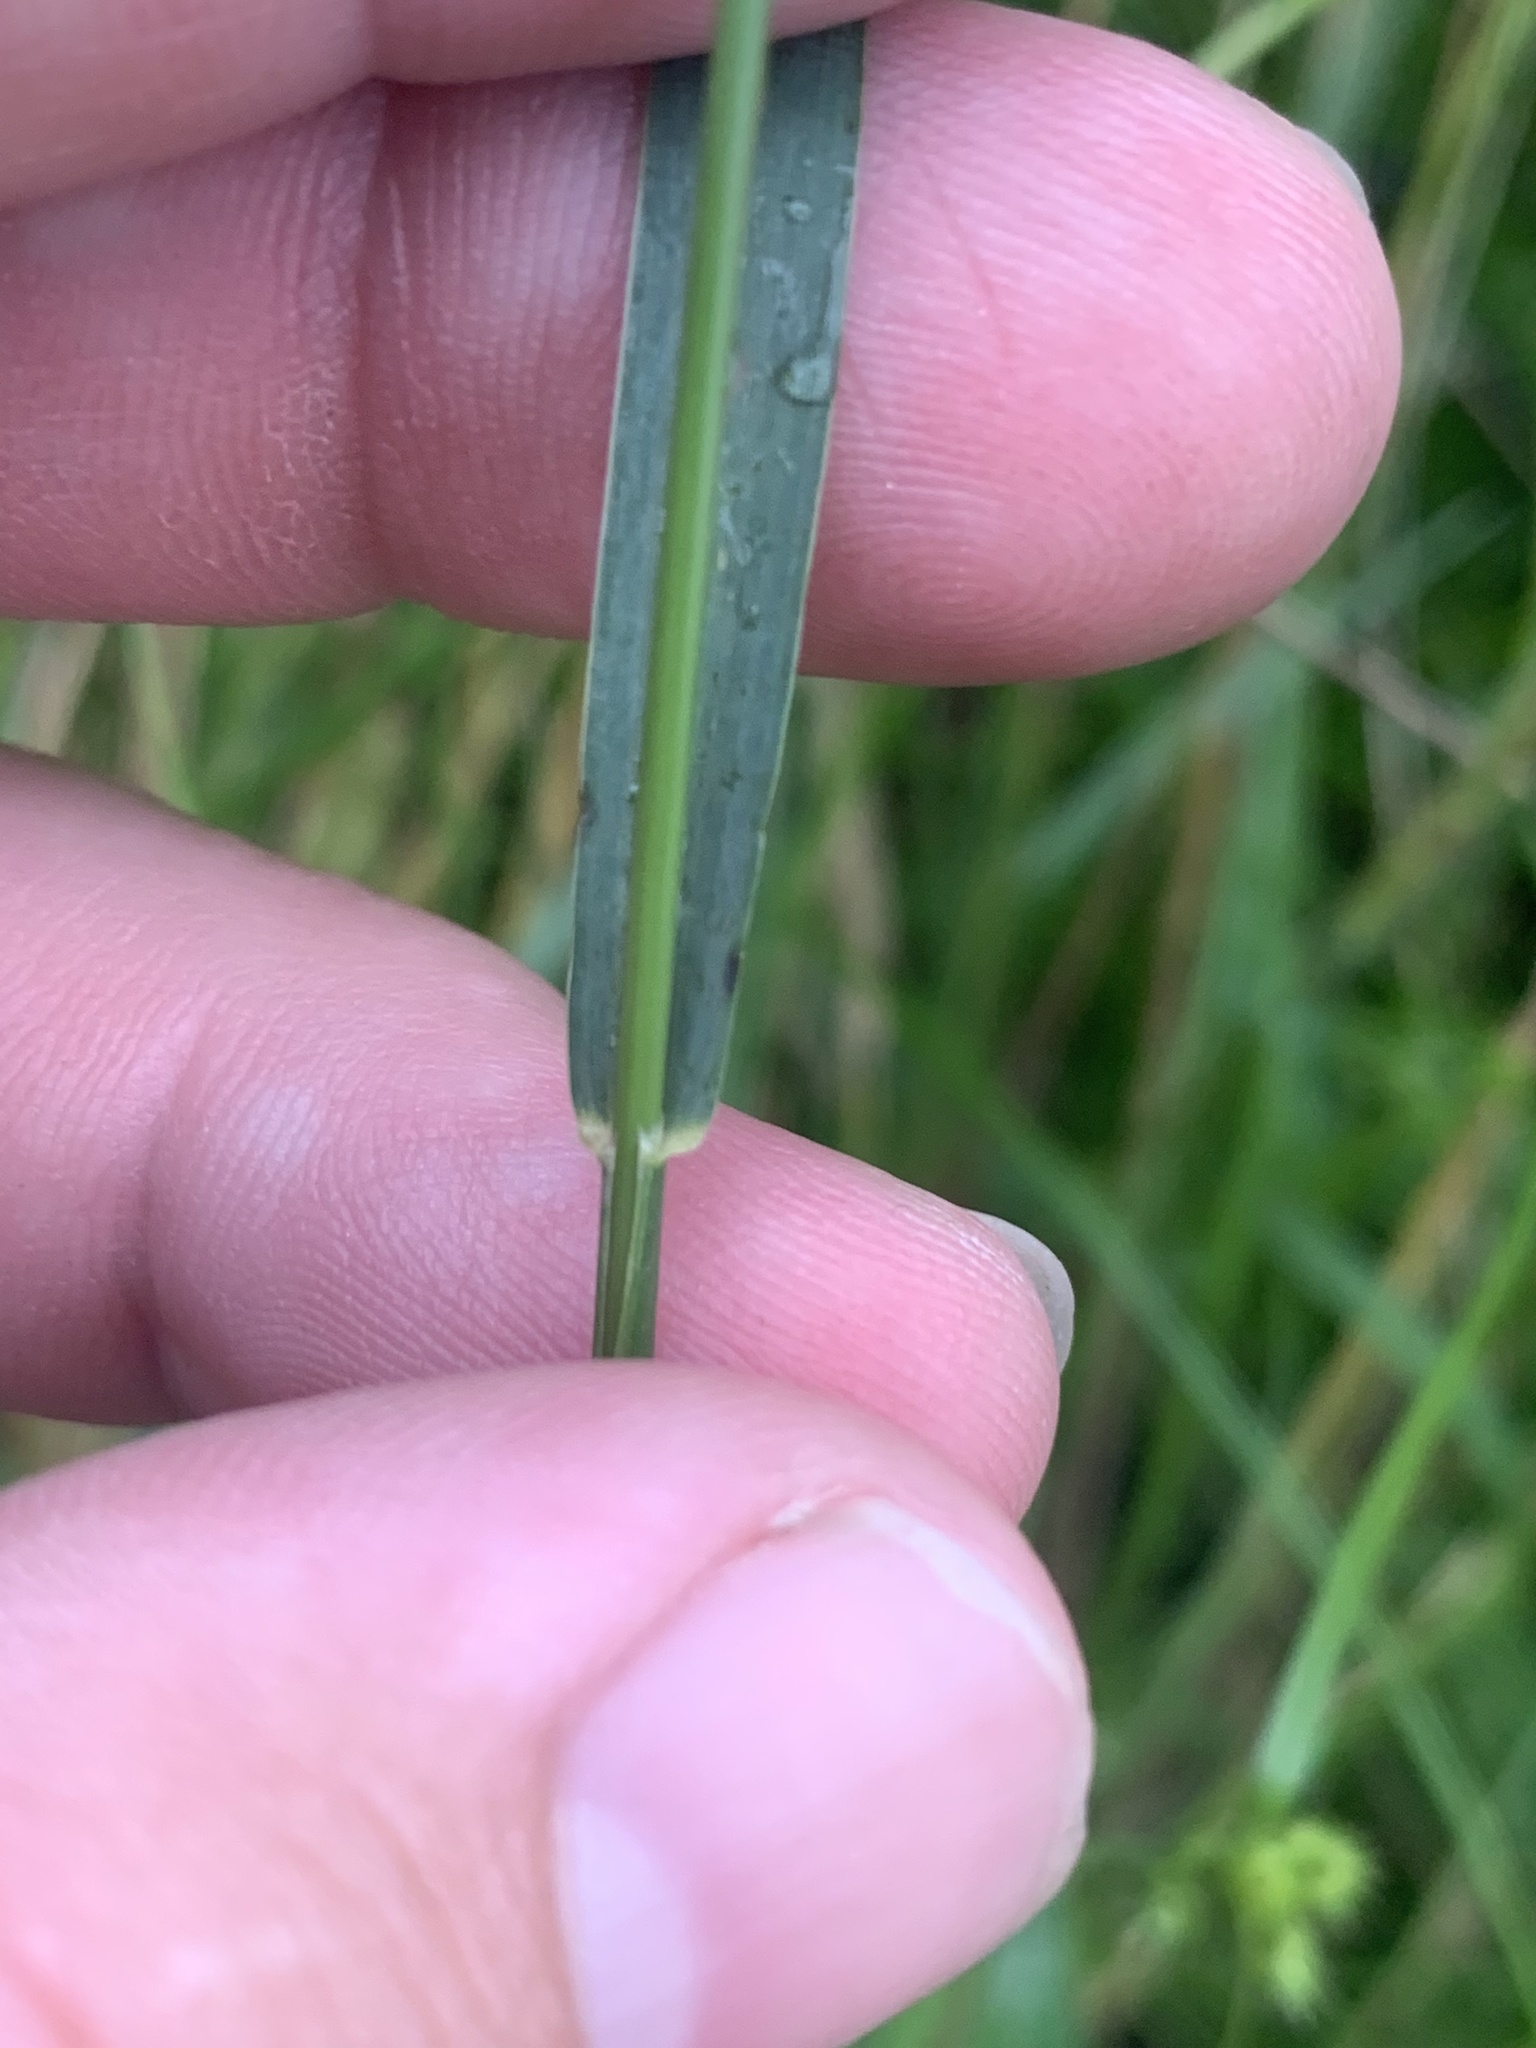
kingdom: Plantae
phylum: Tracheophyta
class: Liliopsida
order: Poales
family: Poaceae
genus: Setaria
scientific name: Setaria parviflora
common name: Knotroot bristle-grass
